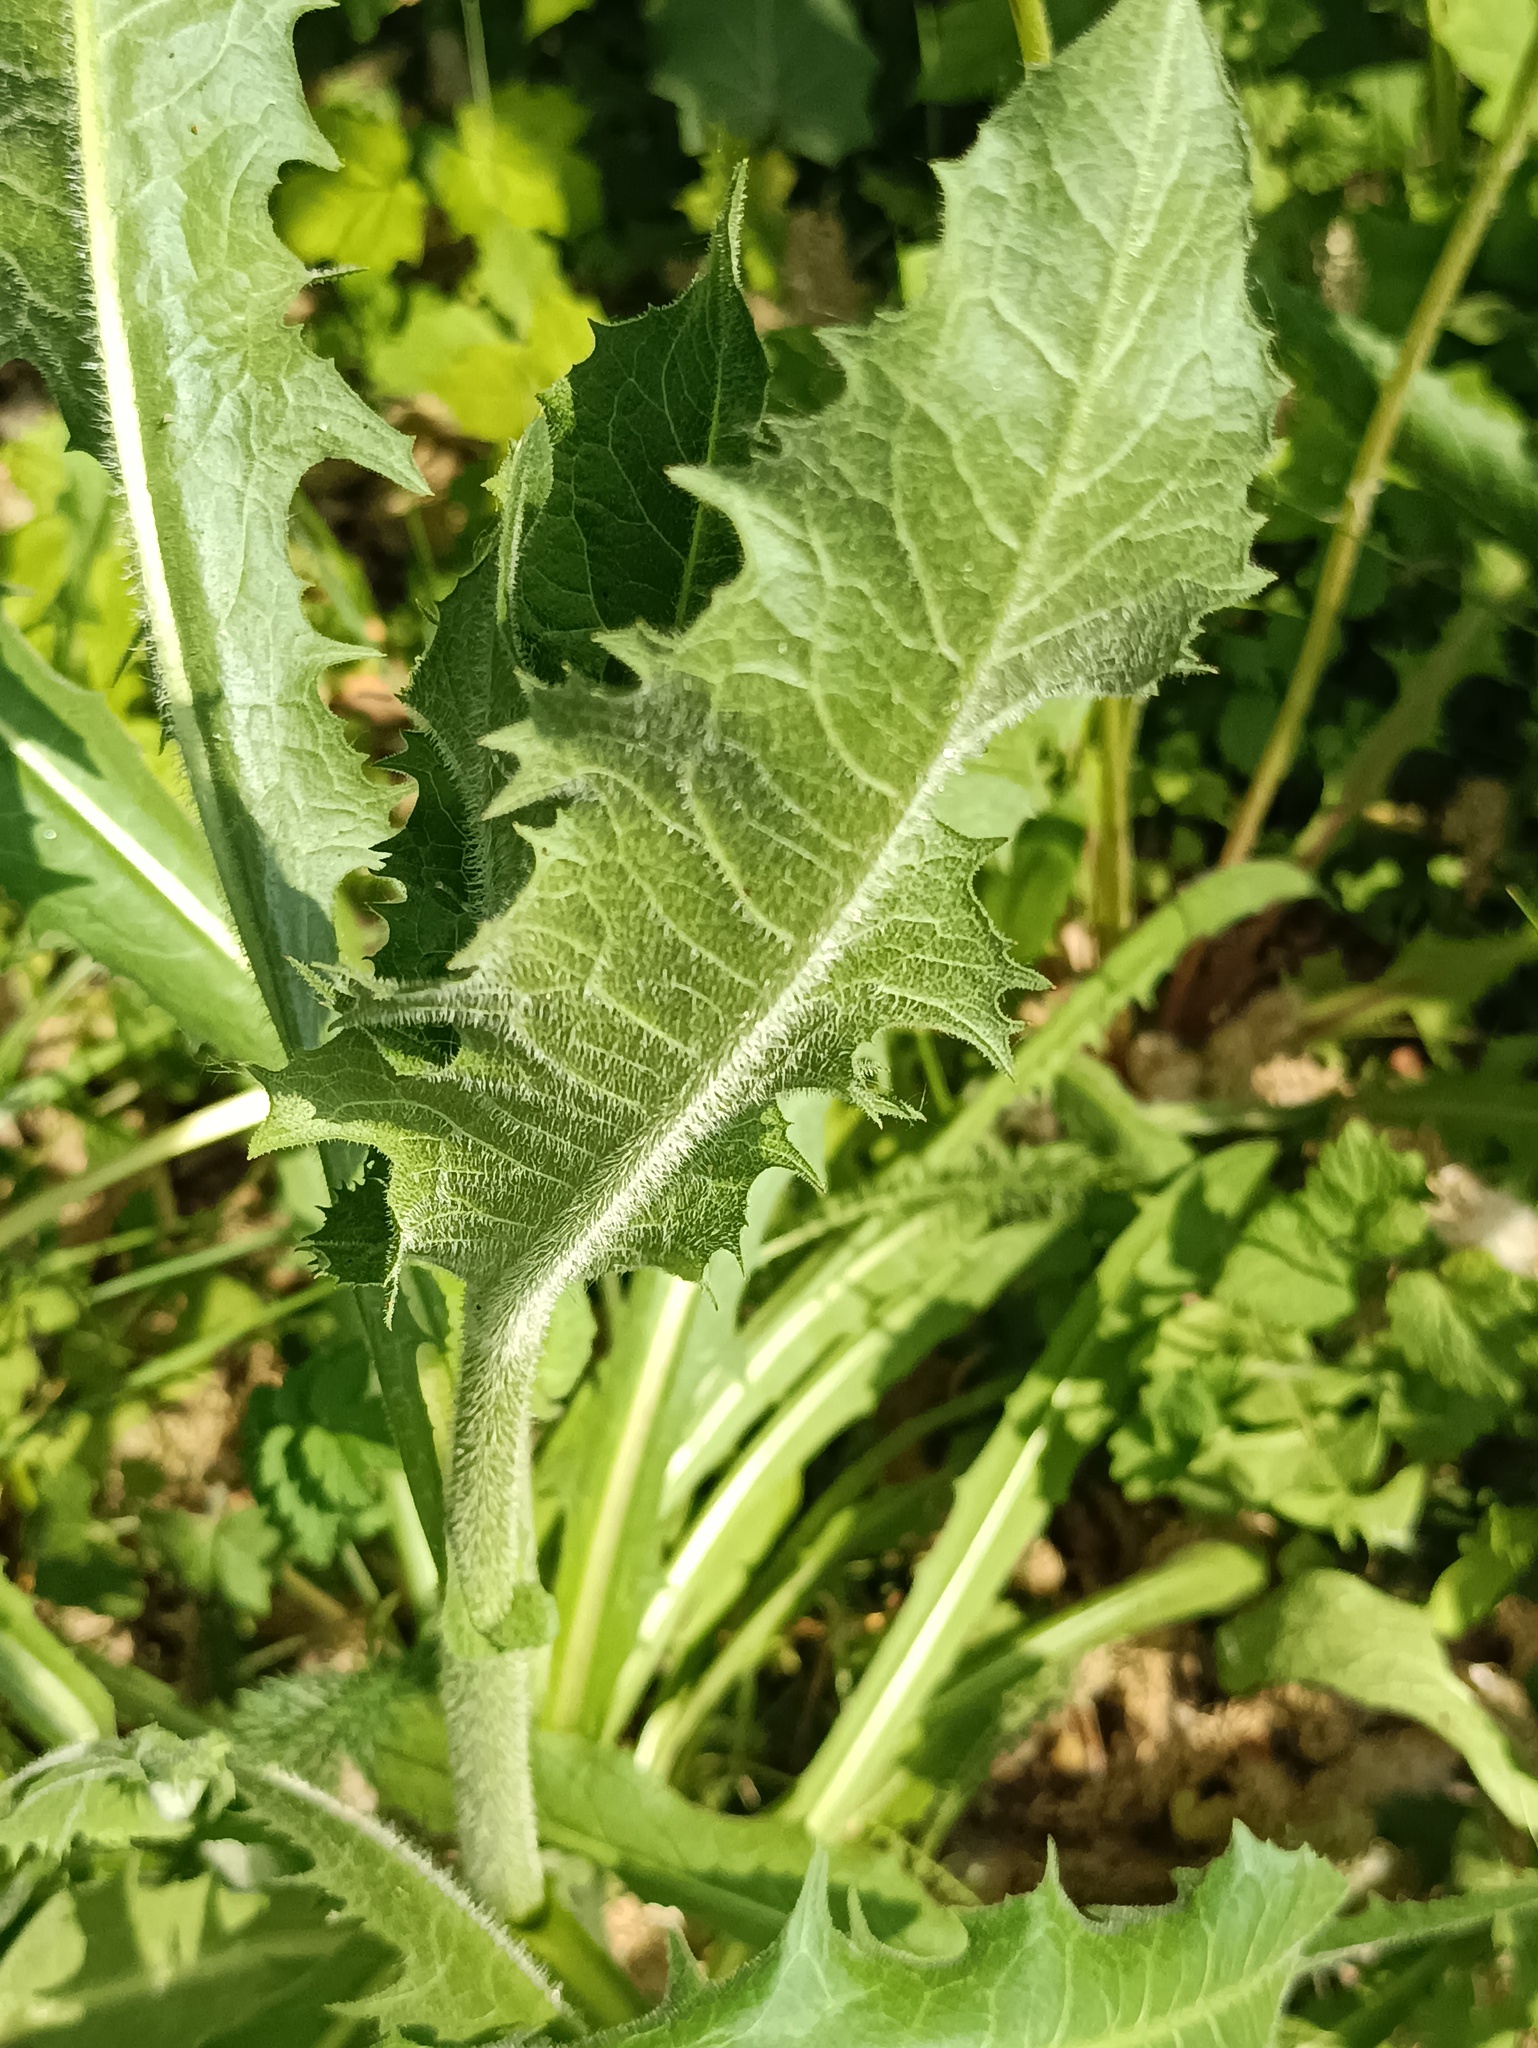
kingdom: Plantae
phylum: Tracheophyta
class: Magnoliopsida
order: Asterales
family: Asteraceae
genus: Cichorium
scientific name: Cichorium intybus
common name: Chicory
